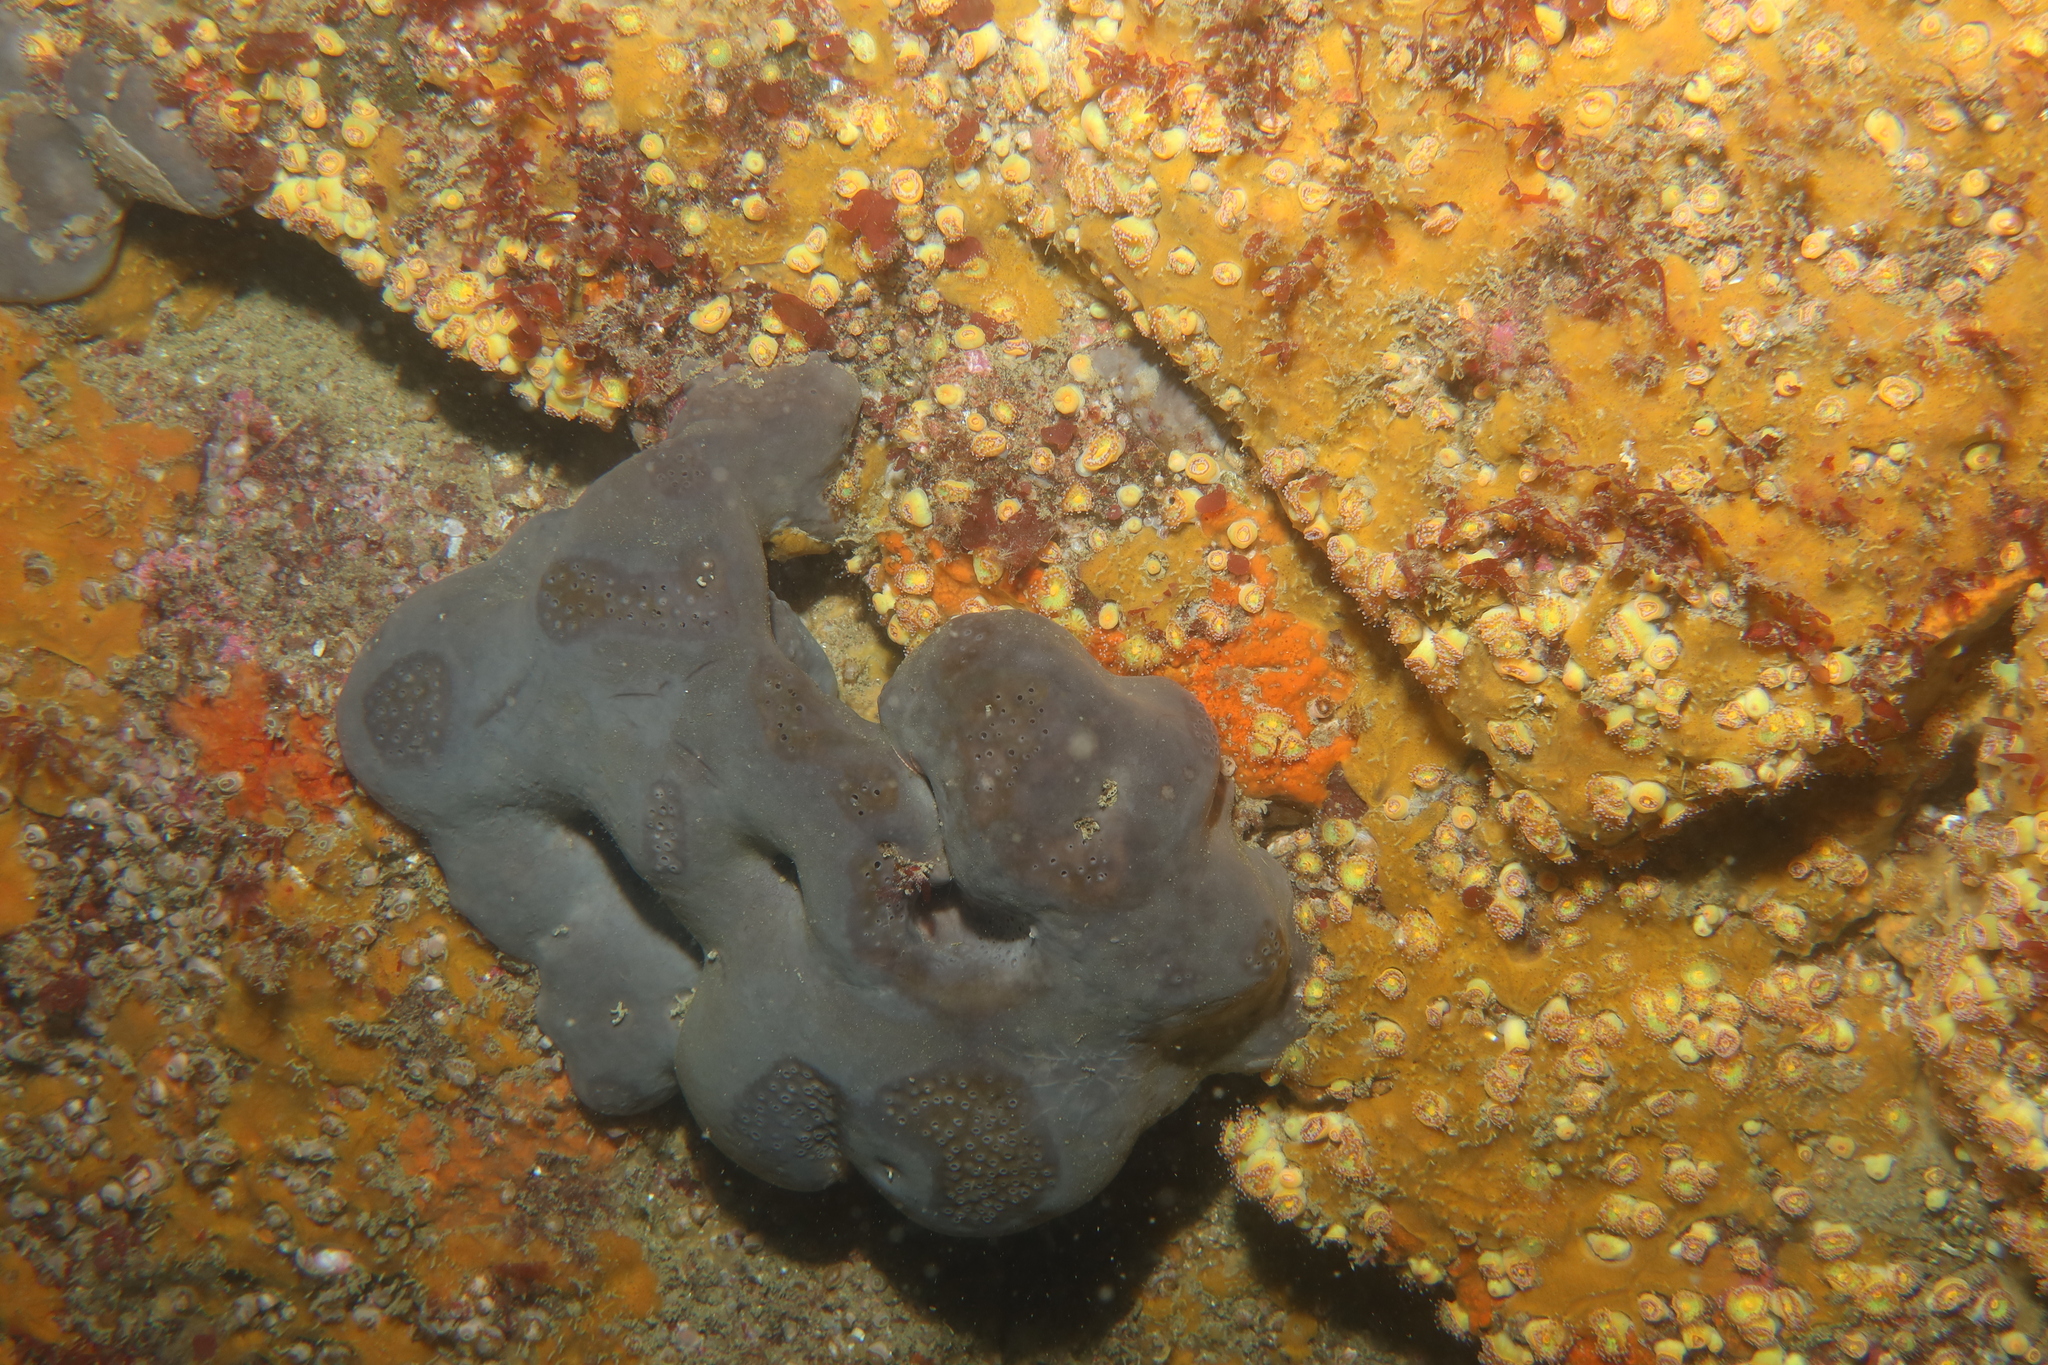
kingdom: Animalia
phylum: Porifera
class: Demospongiae
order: Tetractinellida
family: Geodiidae
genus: Pachymatisma
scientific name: Pachymatisma johnstonia
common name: Elephant ear sponge
